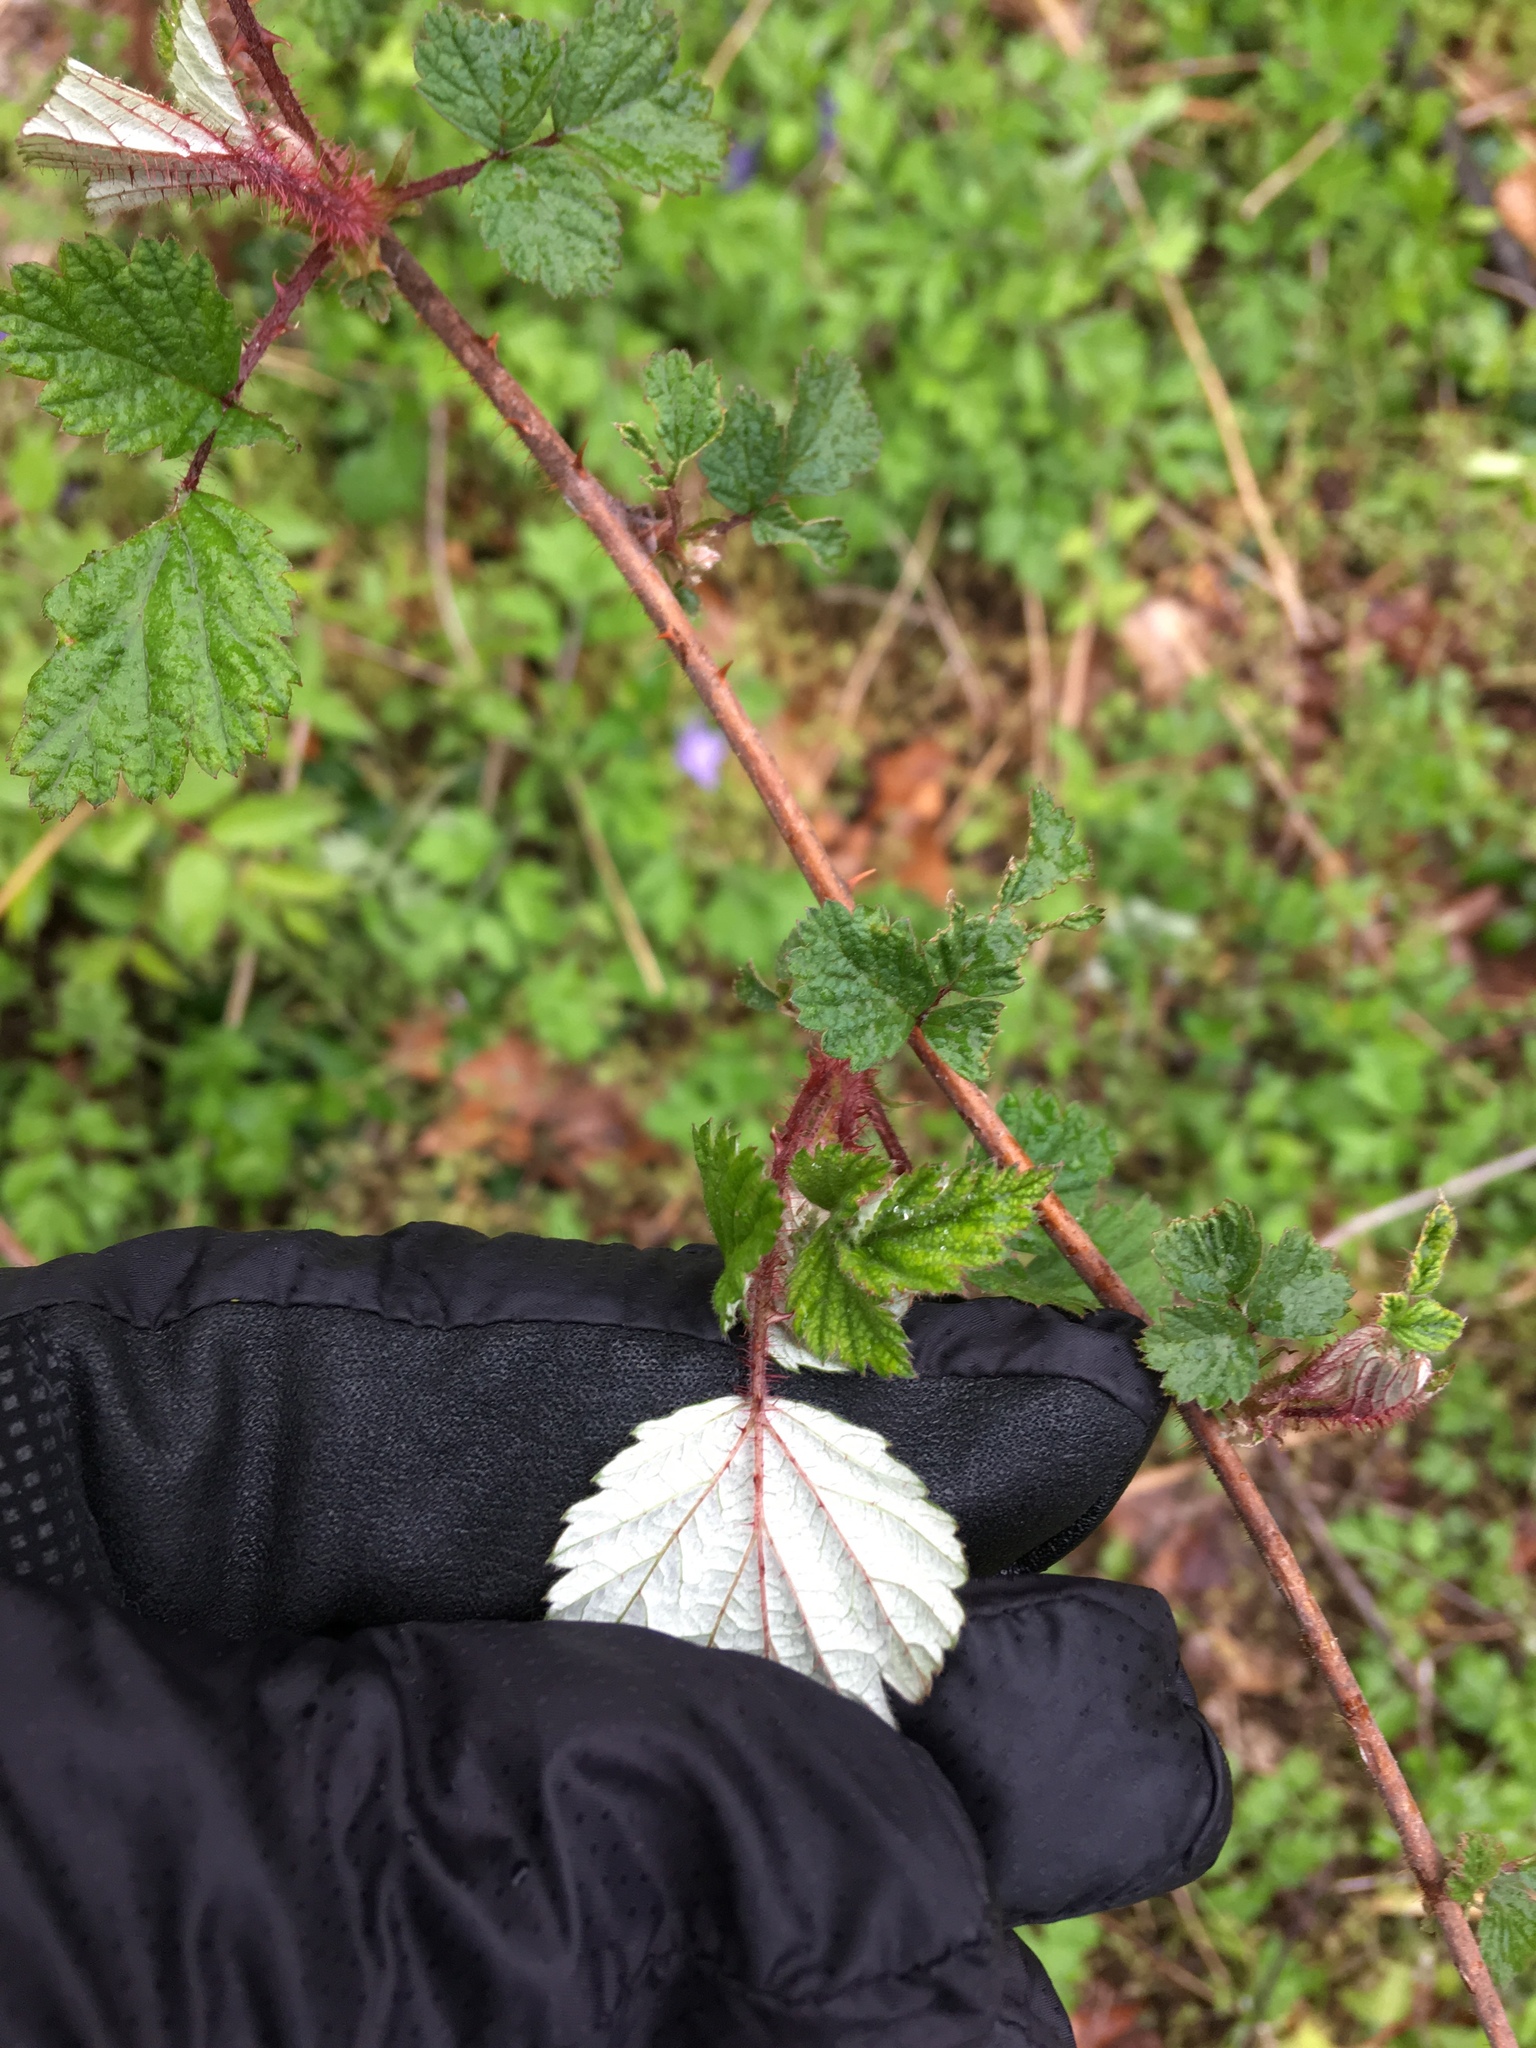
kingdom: Plantae
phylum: Tracheophyta
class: Magnoliopsida
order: Rosales
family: Rosaceae
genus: Rubus
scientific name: Rubus phoenicolasius
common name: Japanese wineberry
